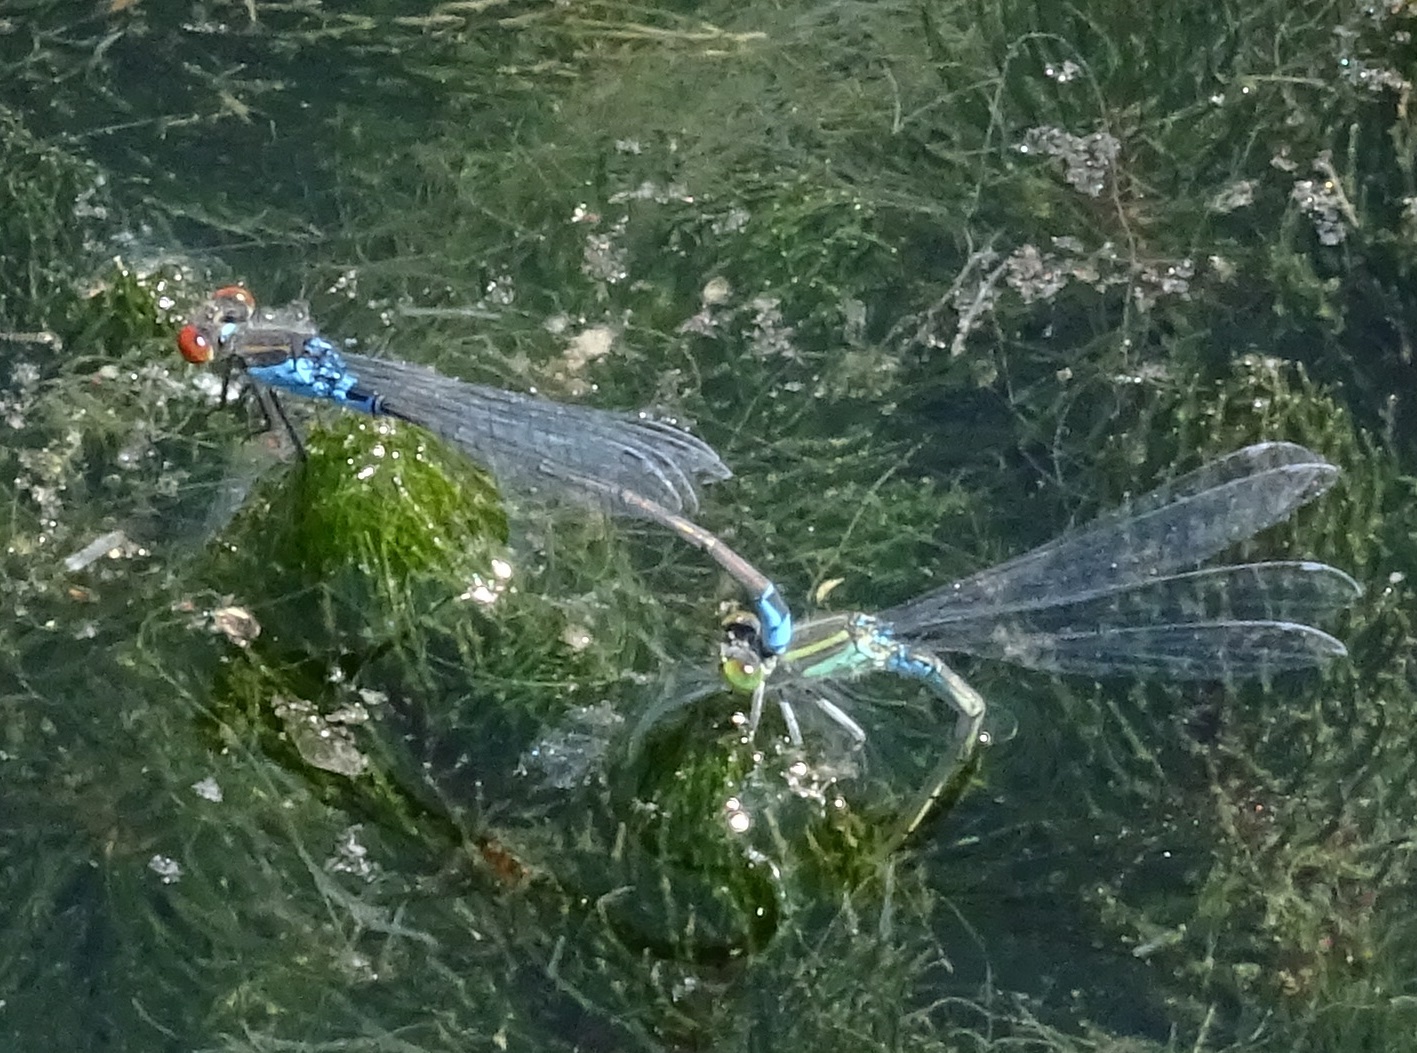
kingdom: Animalia
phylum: Arthropoda
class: Insecta
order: Odonata
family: Coenagrionidae
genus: Erythromma
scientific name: Erythromma viridulum
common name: Small red-eyed damselfly
